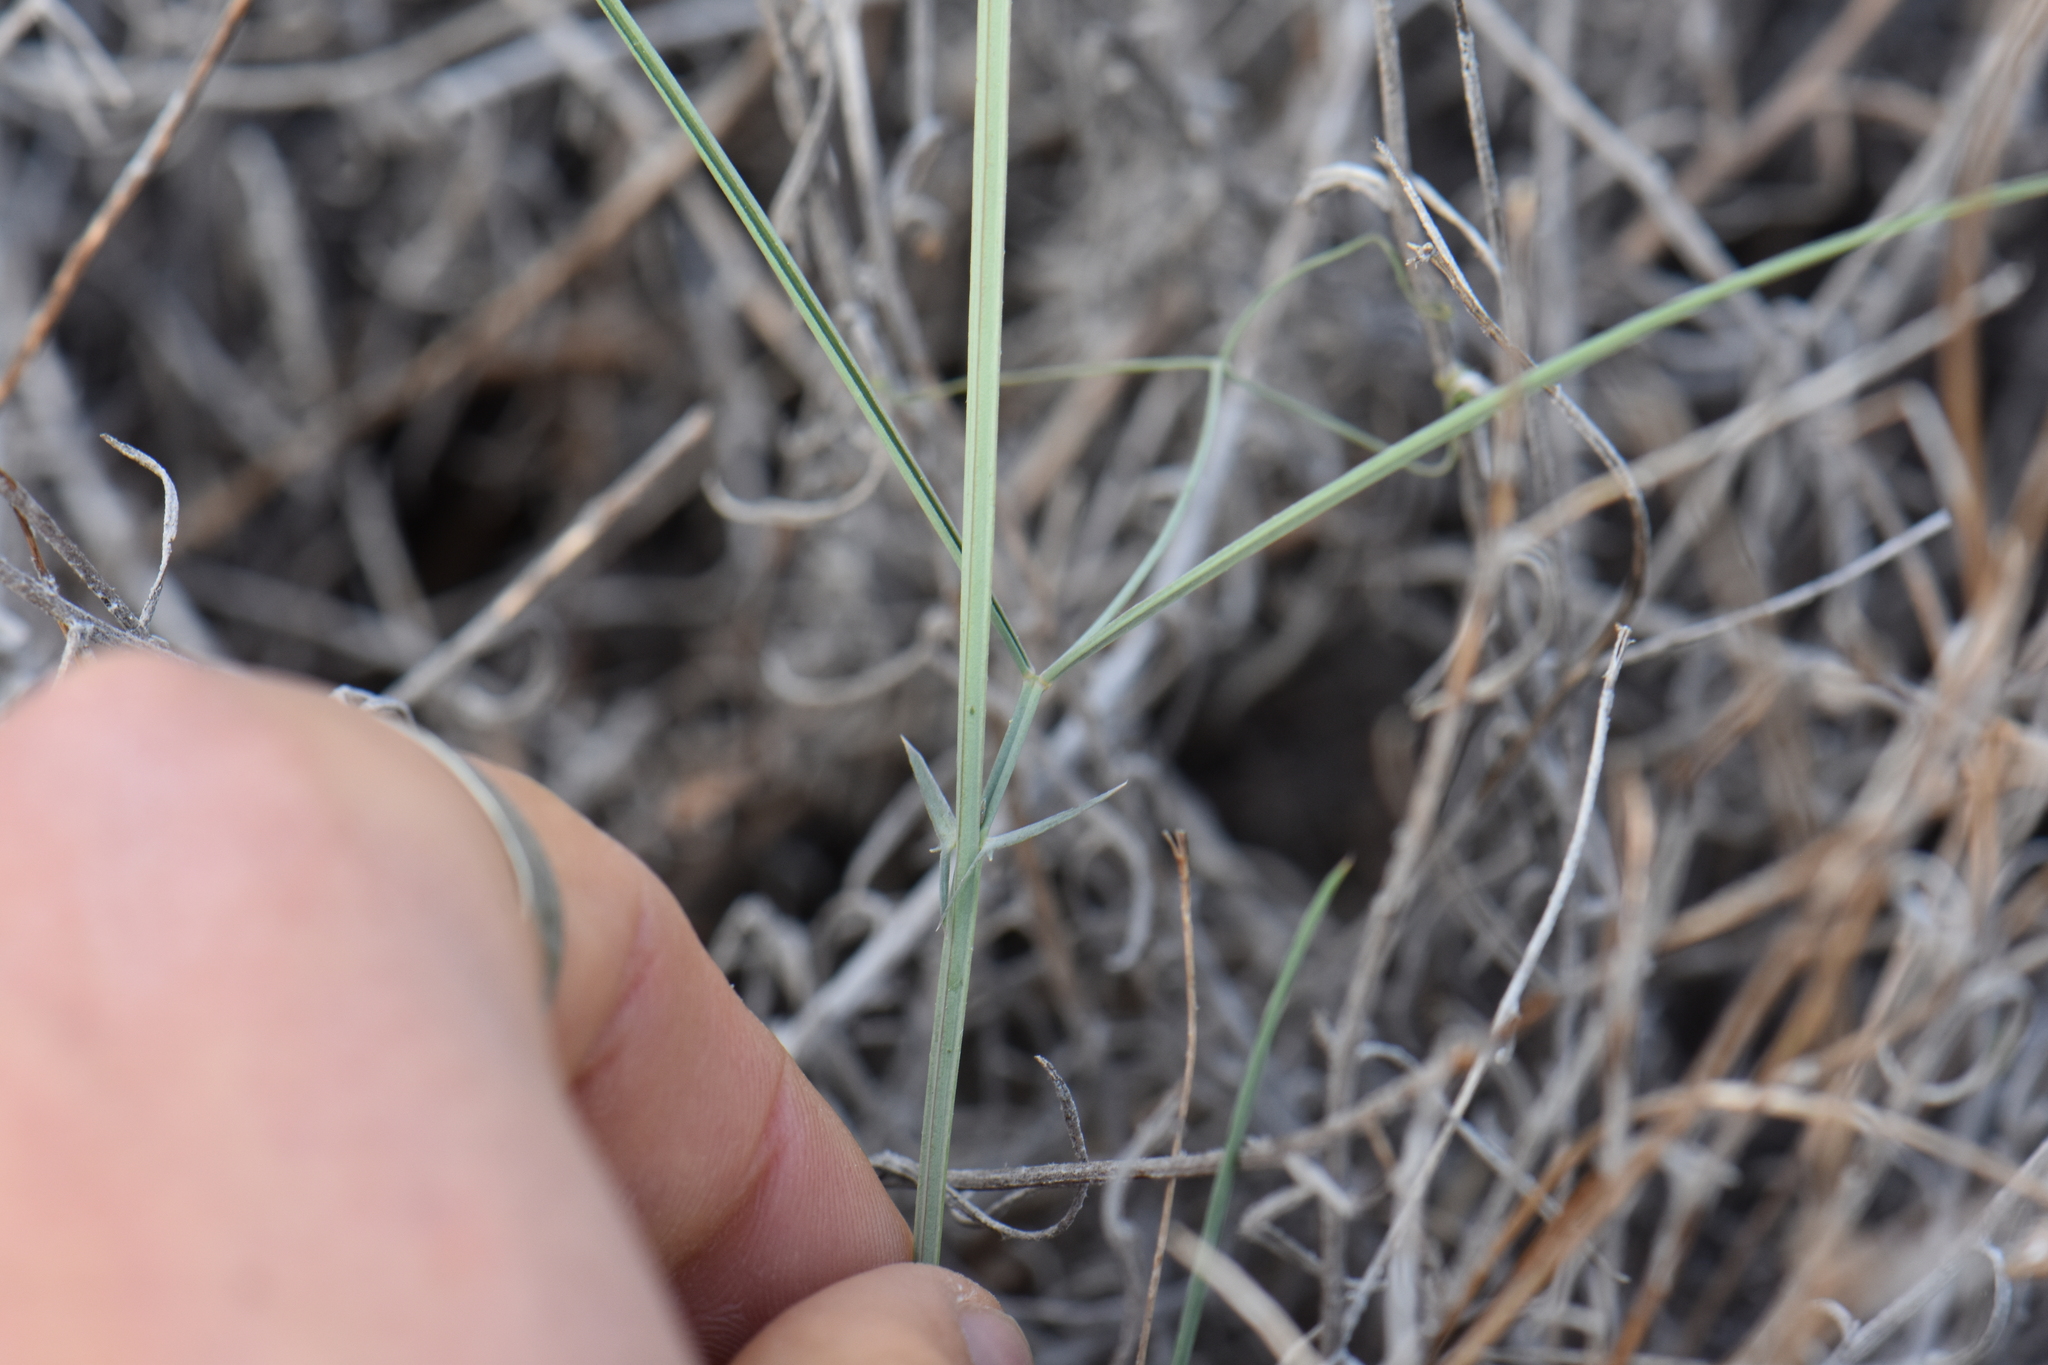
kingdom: Plantae
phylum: Tracheophyta
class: Magnoliopsida
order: Fabales
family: Fabaceae
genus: Lathyrus
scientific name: Lathyrus setifolius
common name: Brown vetchling
